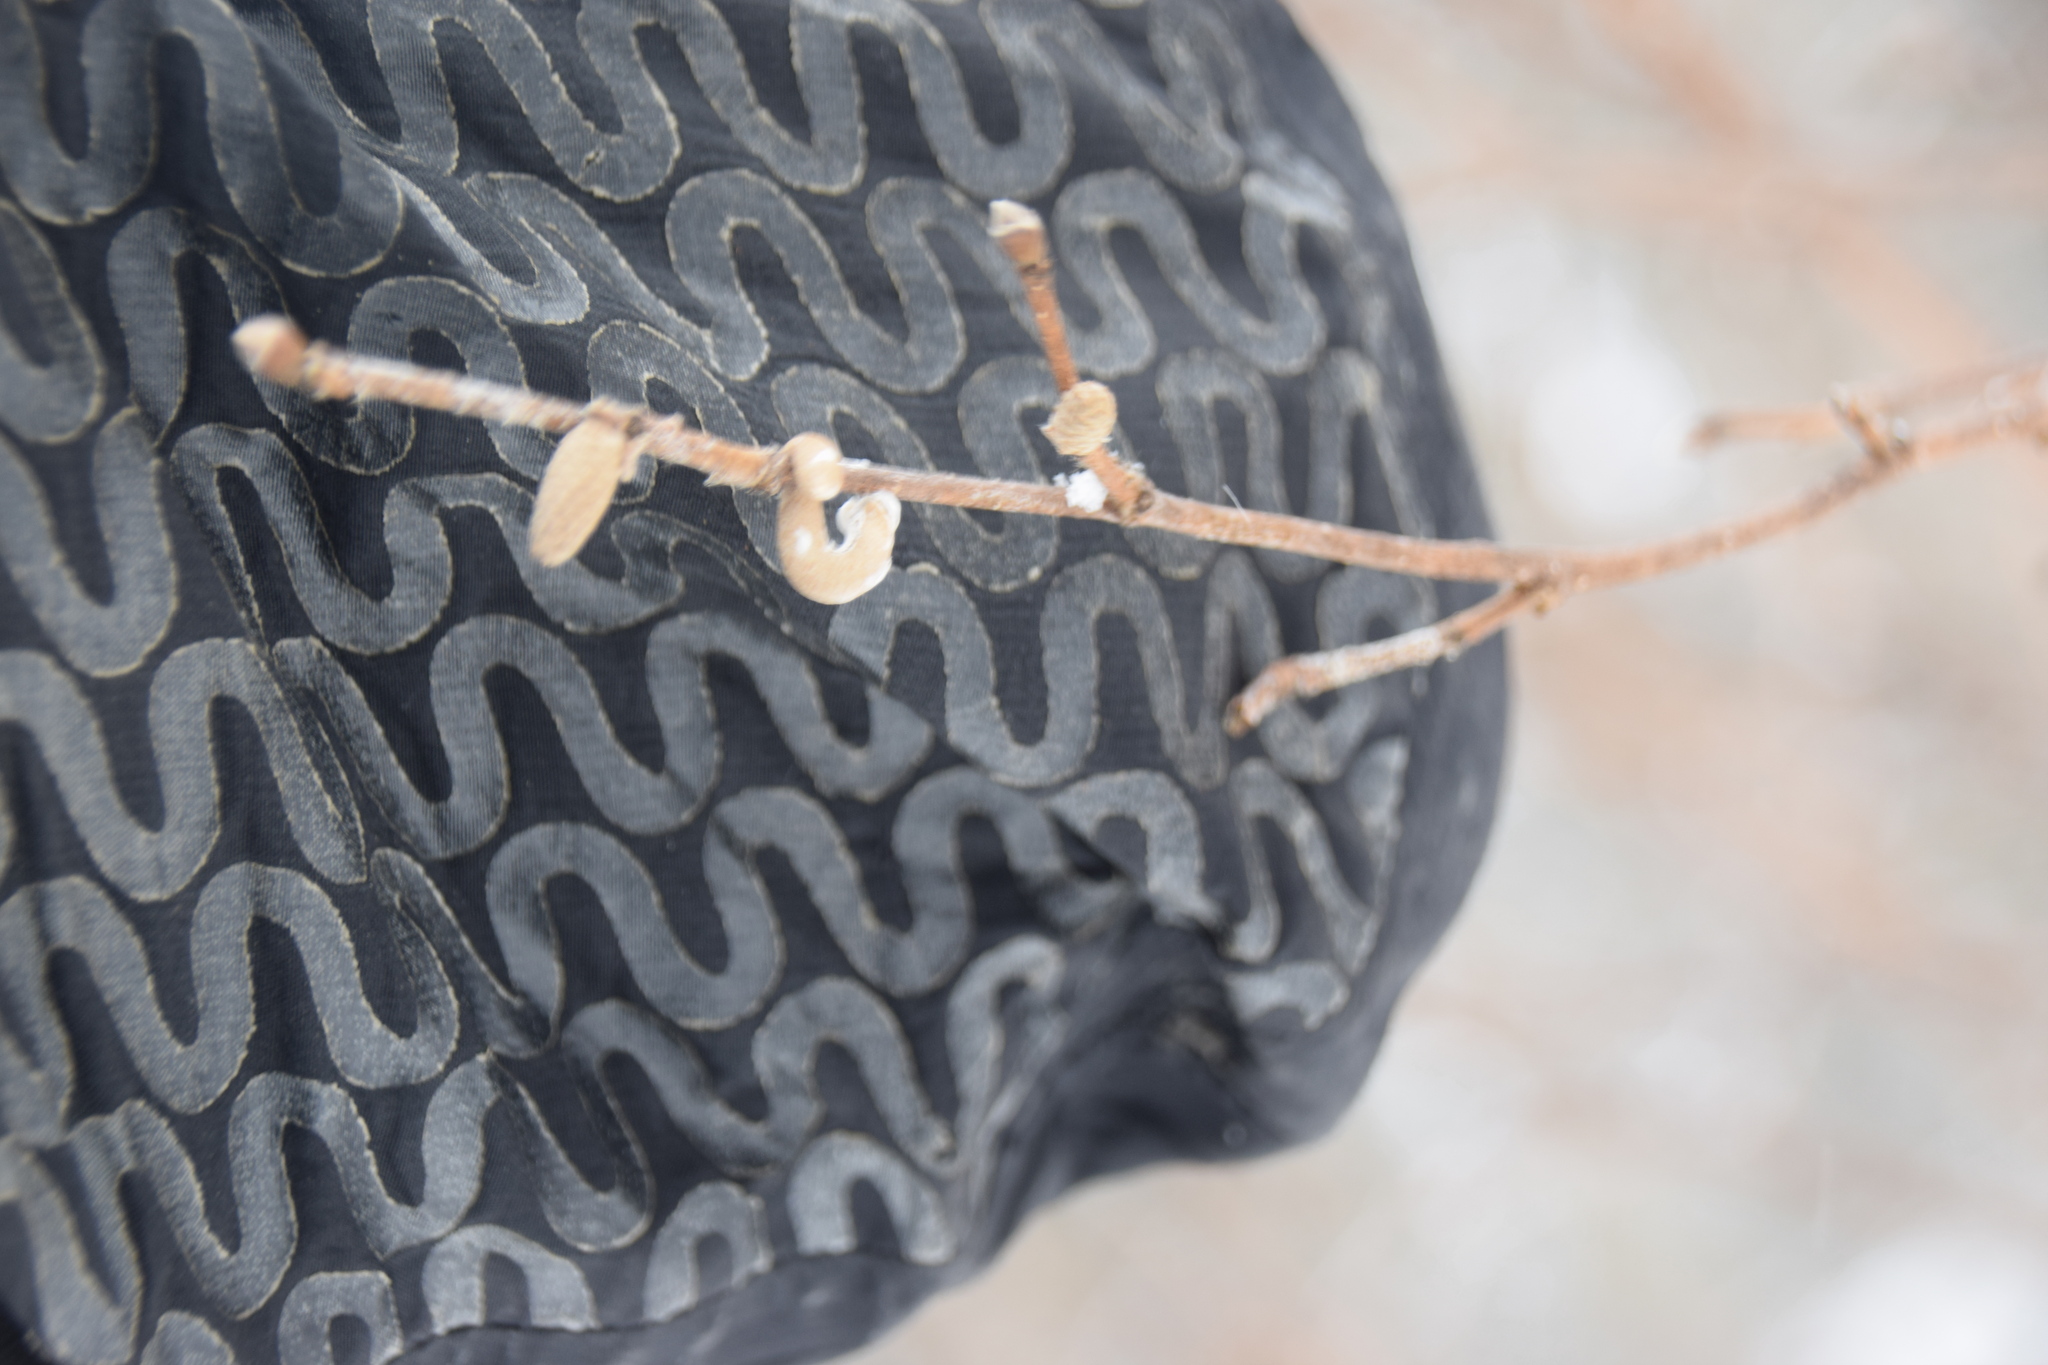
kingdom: Plantae
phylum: Tracheophyta
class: Magnoliopsida
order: Fagales
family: Betulaceae
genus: Corylus
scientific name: Corylus cornuta
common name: Beaked hazel
